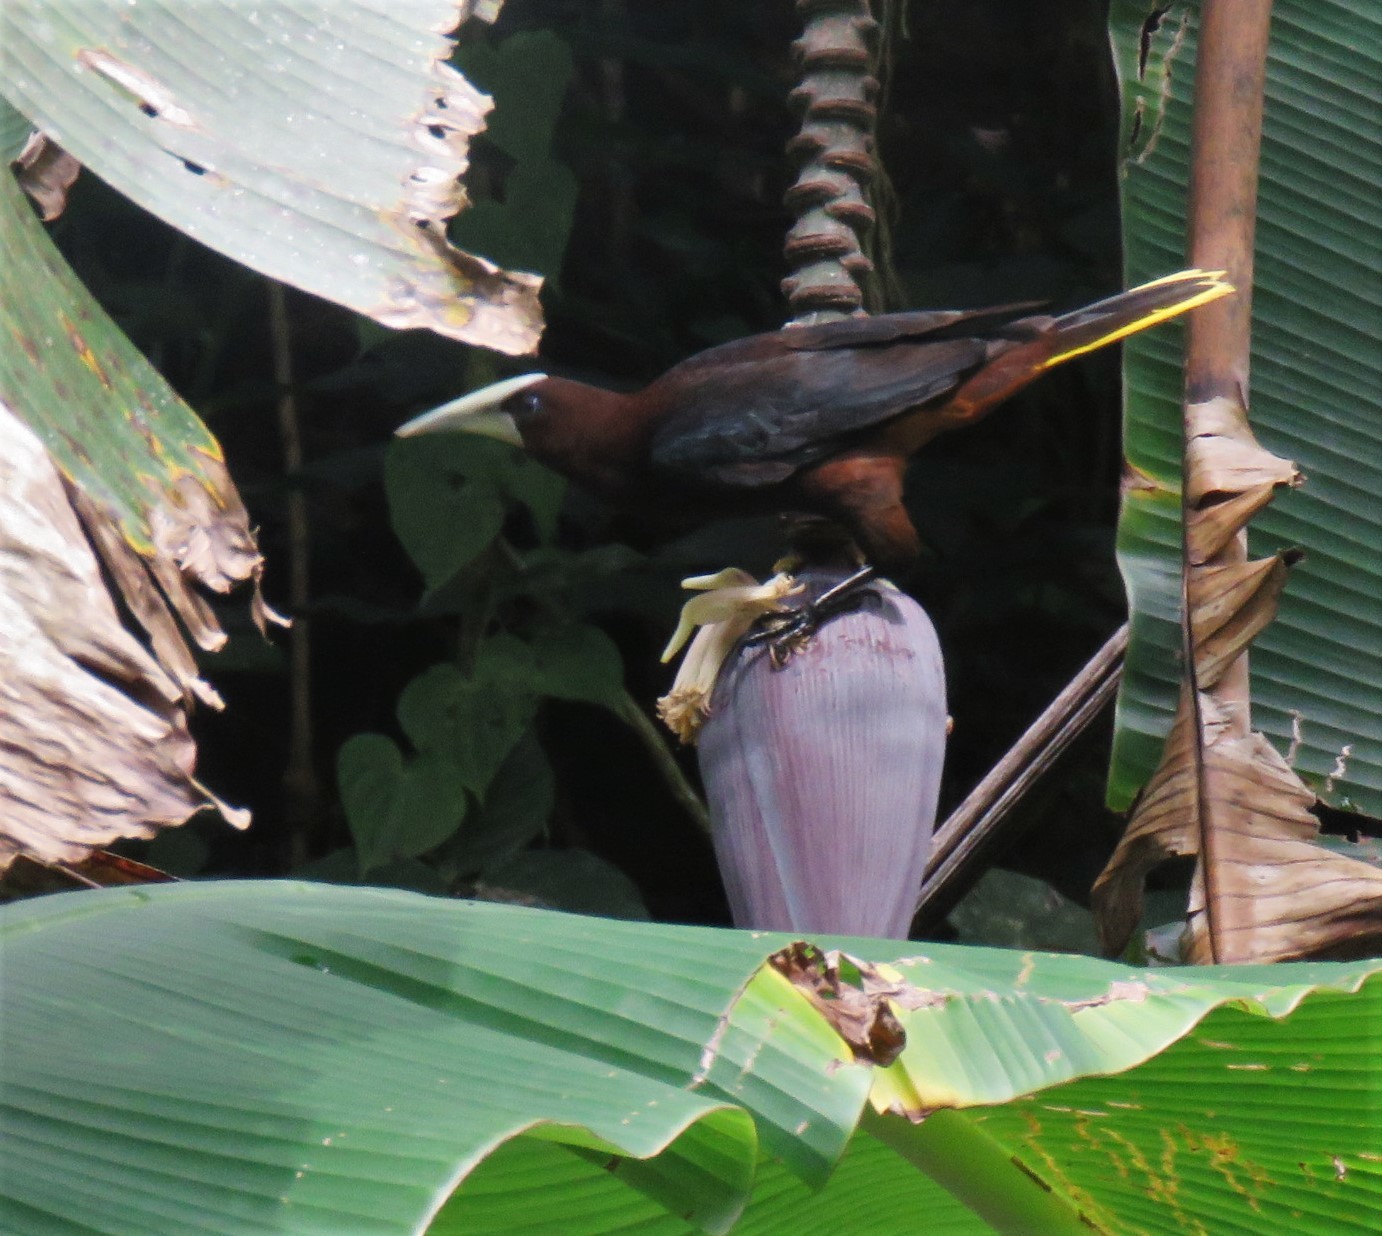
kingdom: Animalia
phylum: Chordata
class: Aves
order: Passeriformes
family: Icteridae
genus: Psarocolius
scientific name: Psarocolius wagleri
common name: Chestnut-headed oropendola
